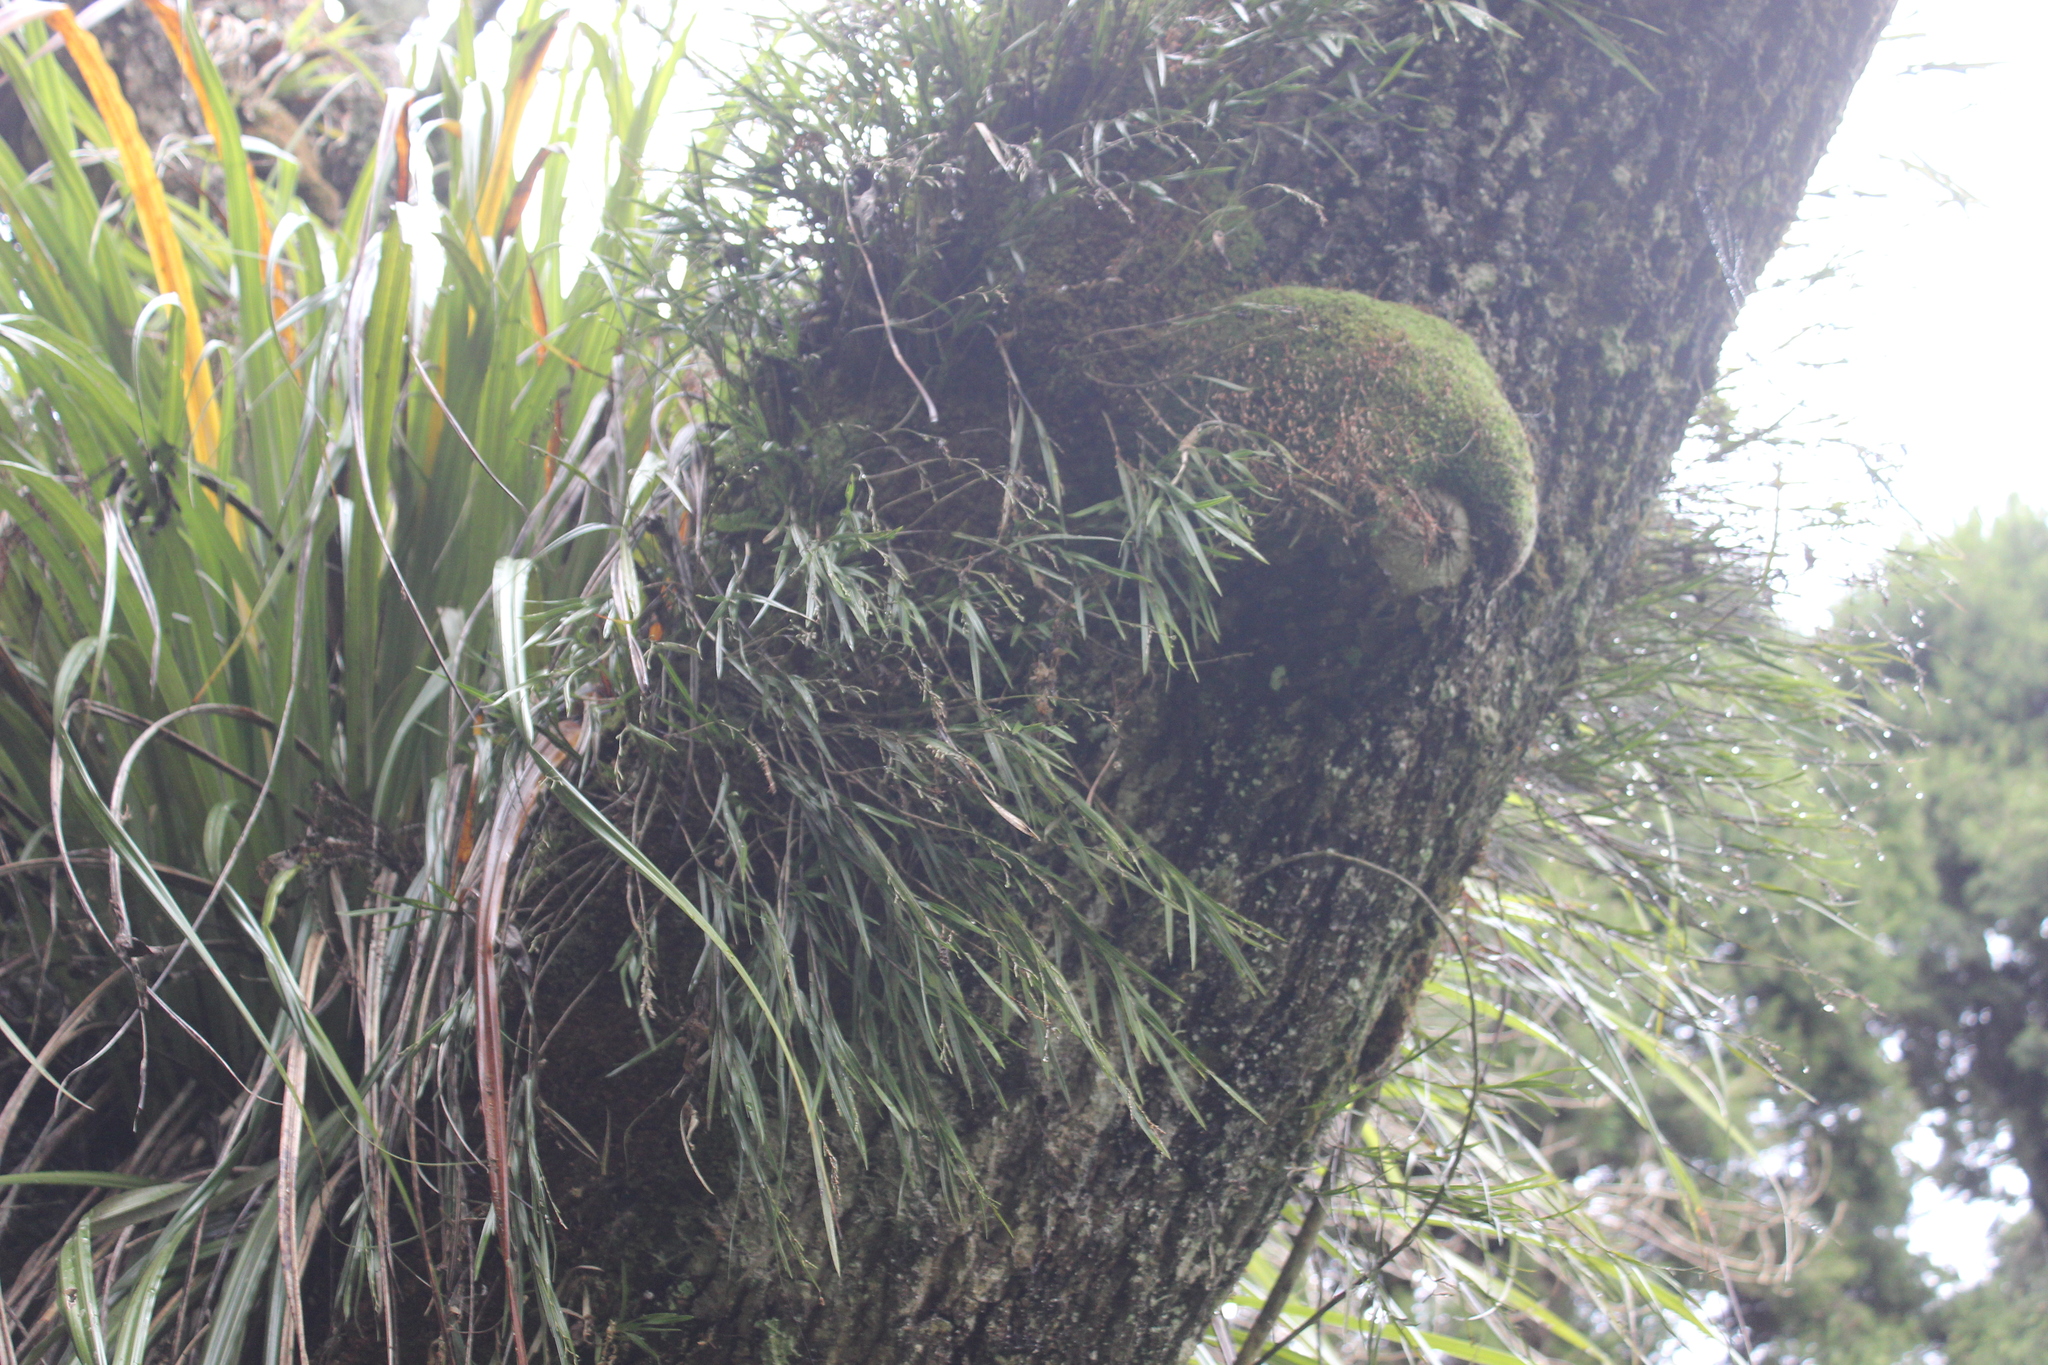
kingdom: Plantae
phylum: Tracheophyta
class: Liliopsida
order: Asparagales
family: Orchidaceae
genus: Earina
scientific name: Earina mucronata
